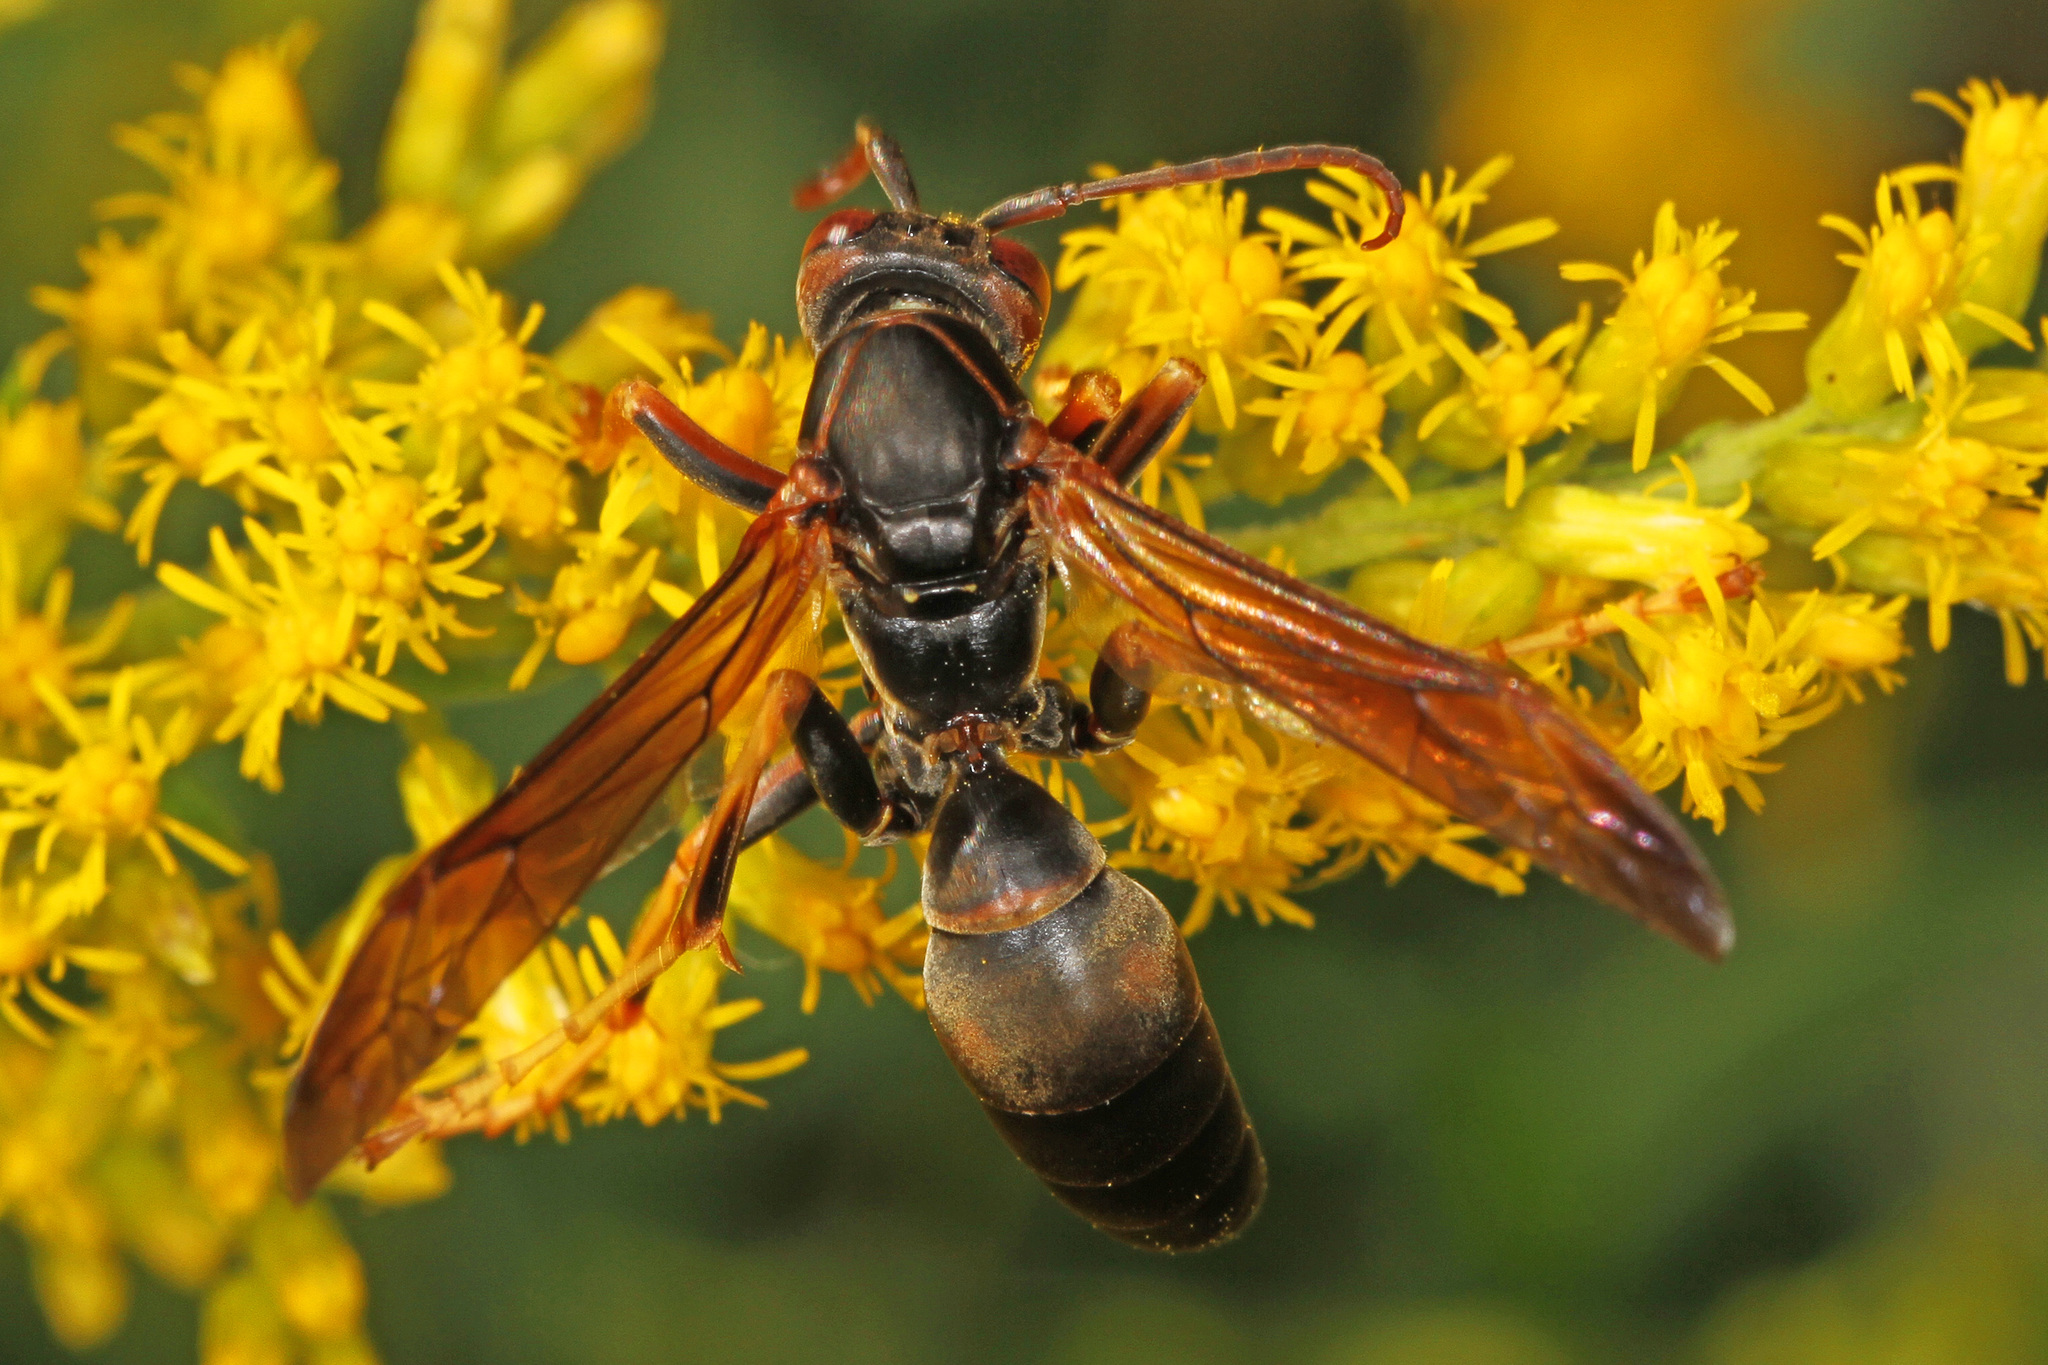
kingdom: Animalia
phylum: Arthropoda
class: Insecta
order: Hymenoptera
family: Eumenidae
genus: Polistes
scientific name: Polistes fuscatus
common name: Dark paper wasp
